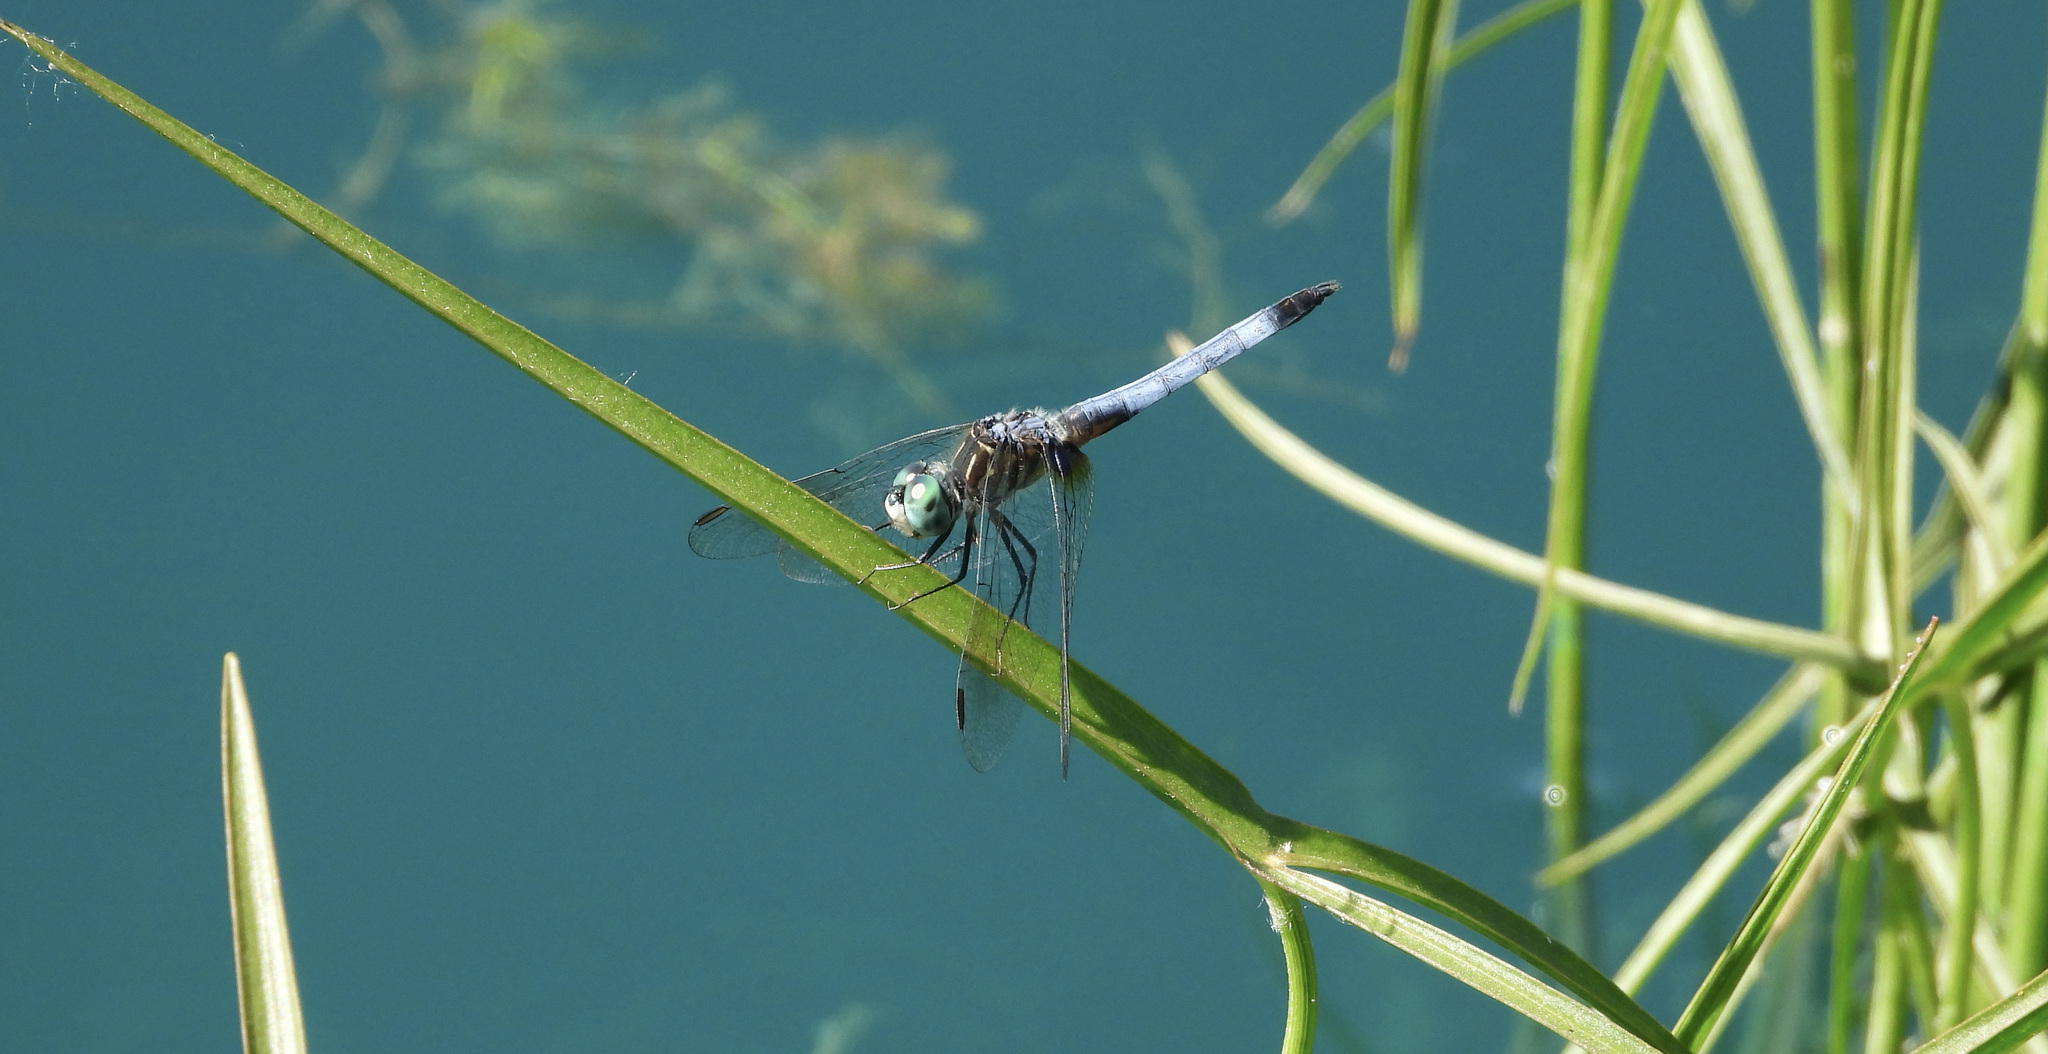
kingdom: Animalia
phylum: Arthropoda
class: Insecta
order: Odonata
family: Libellulidae
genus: Pachydiplax
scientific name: Pachydiplax longipennis
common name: Blue dasher
